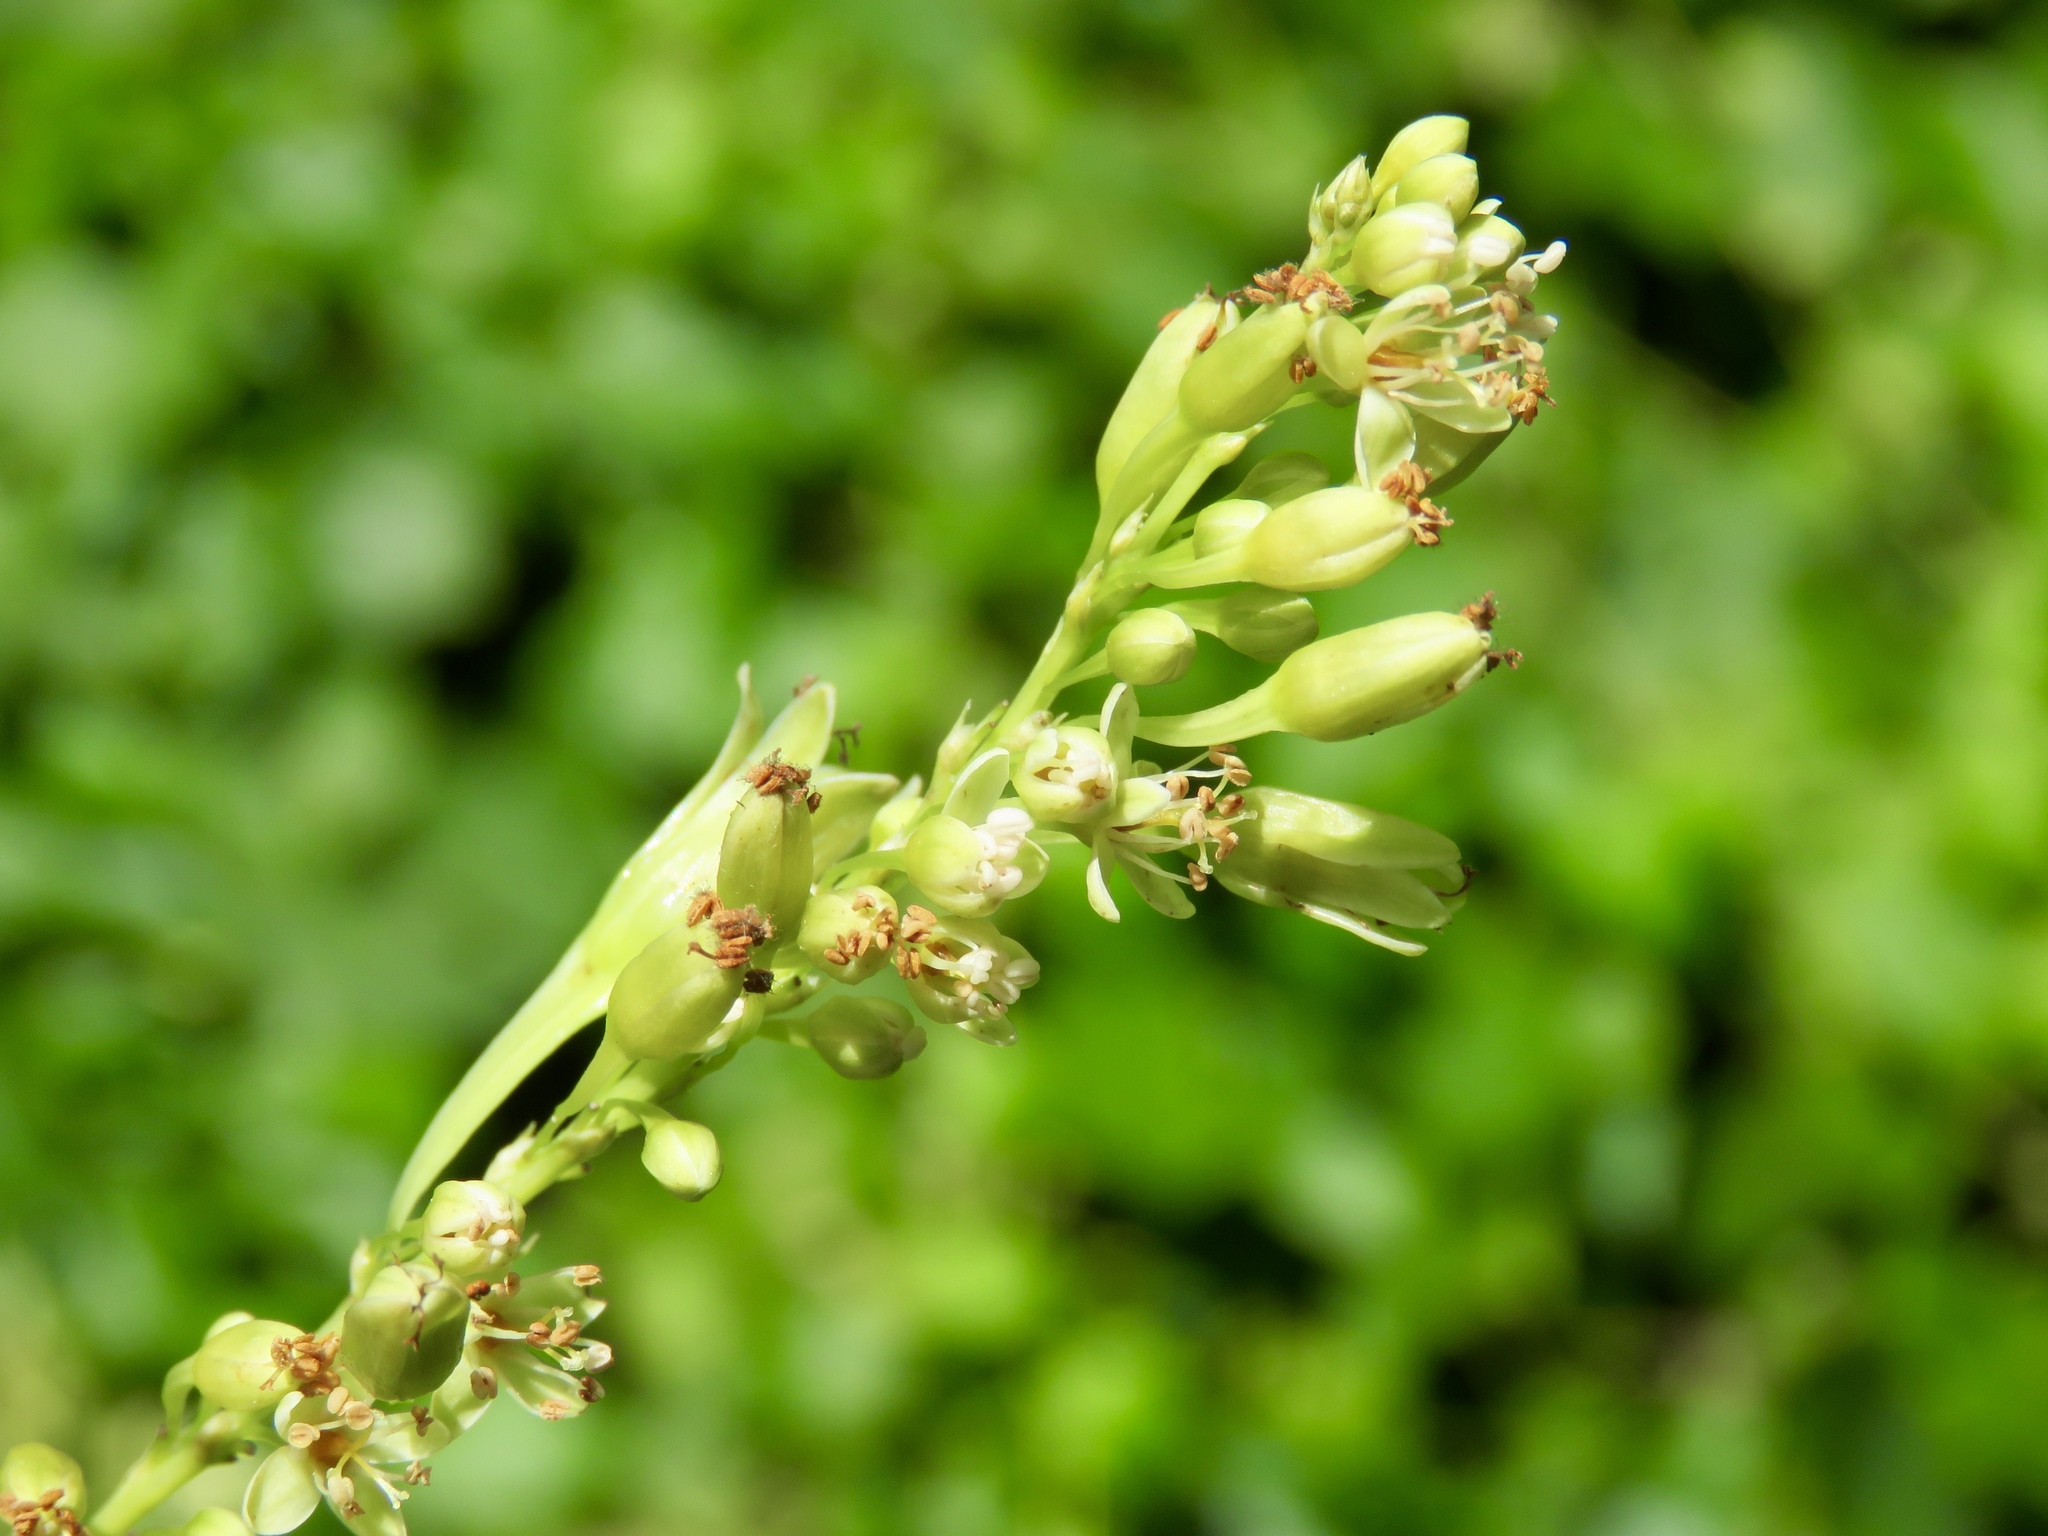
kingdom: Plantae
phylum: Tracheophyta
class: Magnoliopsida
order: Caryophyllales
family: Polygonaceae
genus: Brunnichia
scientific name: Brunnichia ovata
